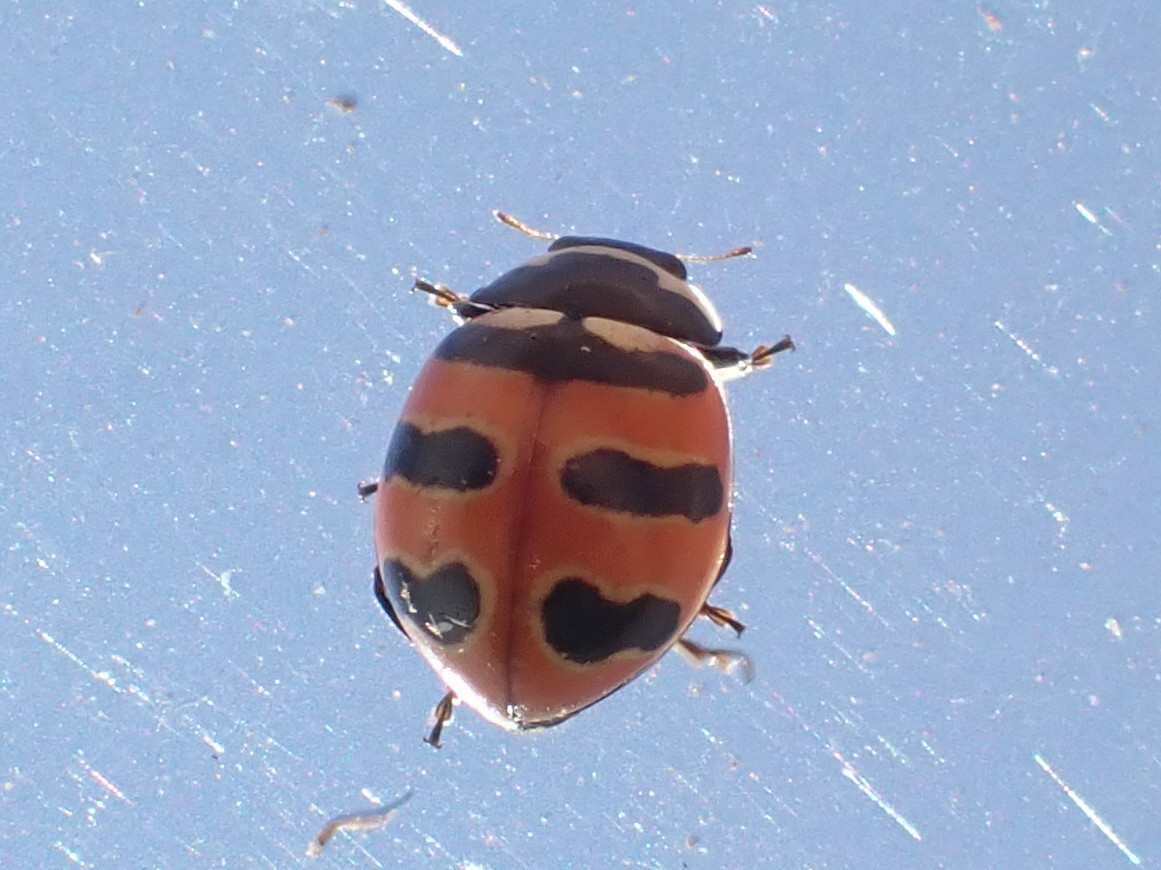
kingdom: Animalia
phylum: Arthropoda
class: Insecta
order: Coleoptera
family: Coccinellidae
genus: Coccinella
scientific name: Coccinella trifasciata
